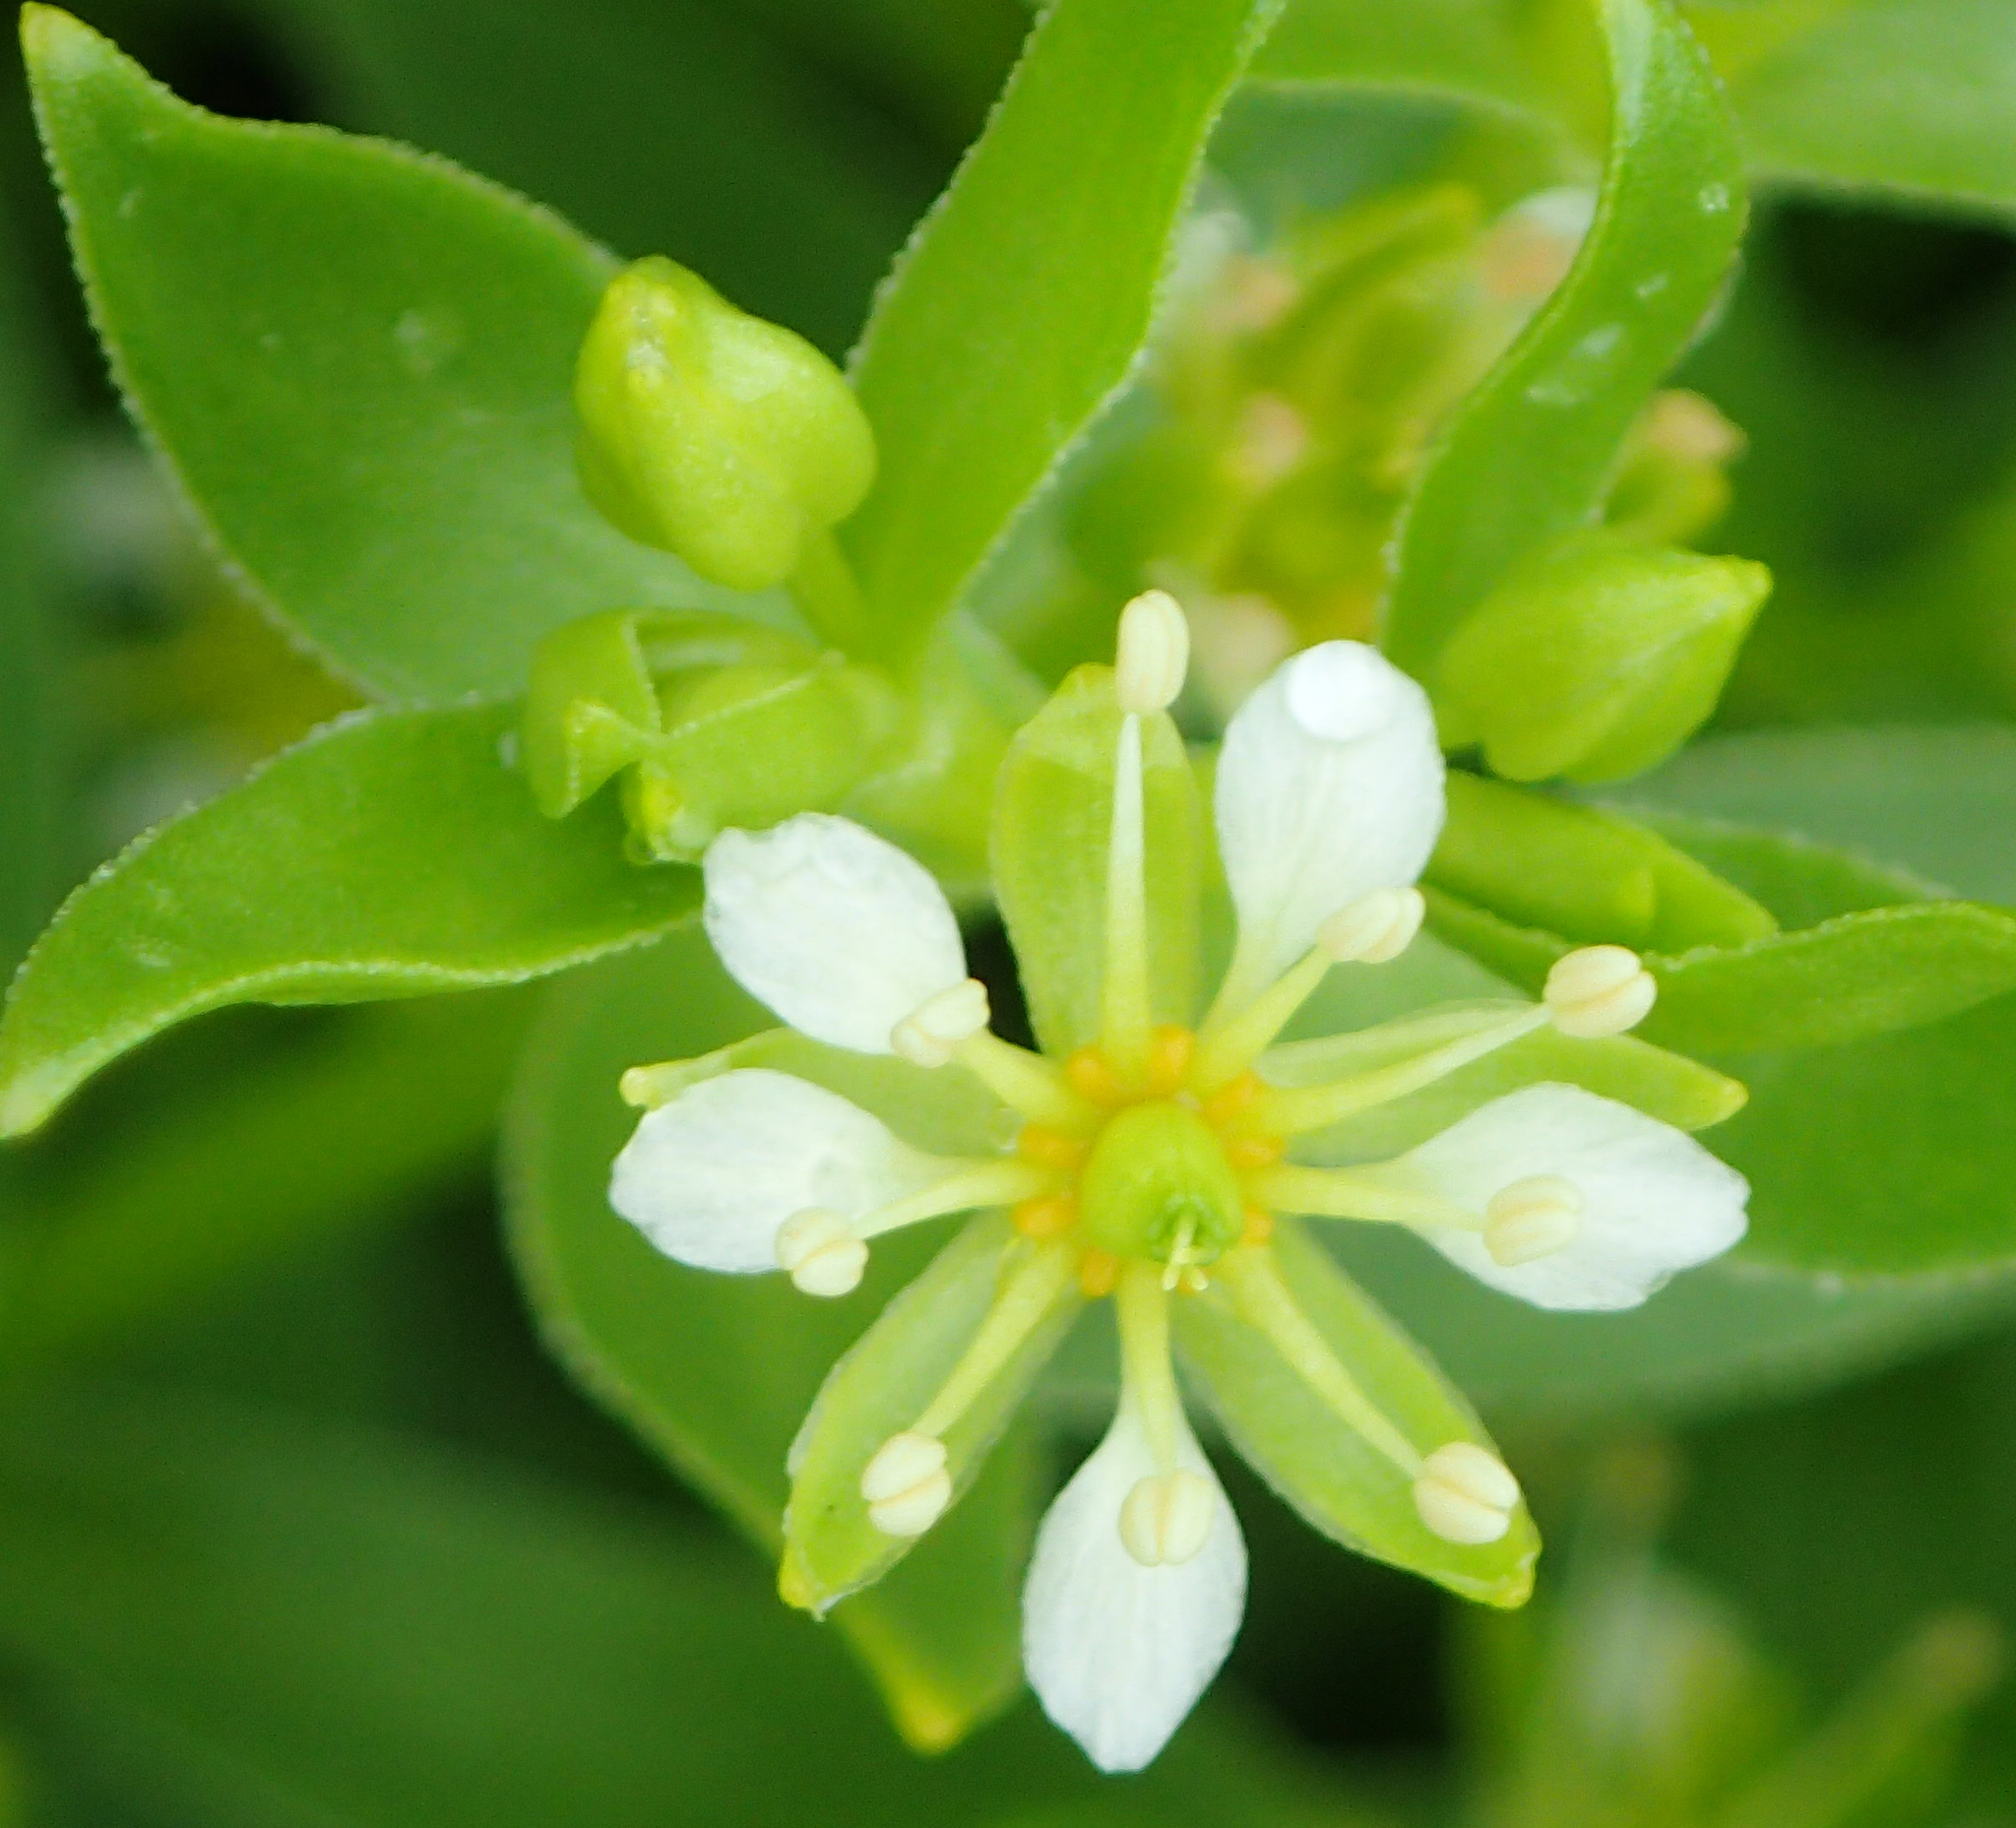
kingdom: Plantae
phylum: Tracheophyta
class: Magnoliopsida
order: Caryophyllales
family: Caryophyllaceae
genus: Honckenya
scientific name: Honckenya peploides
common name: Sea sandwort
